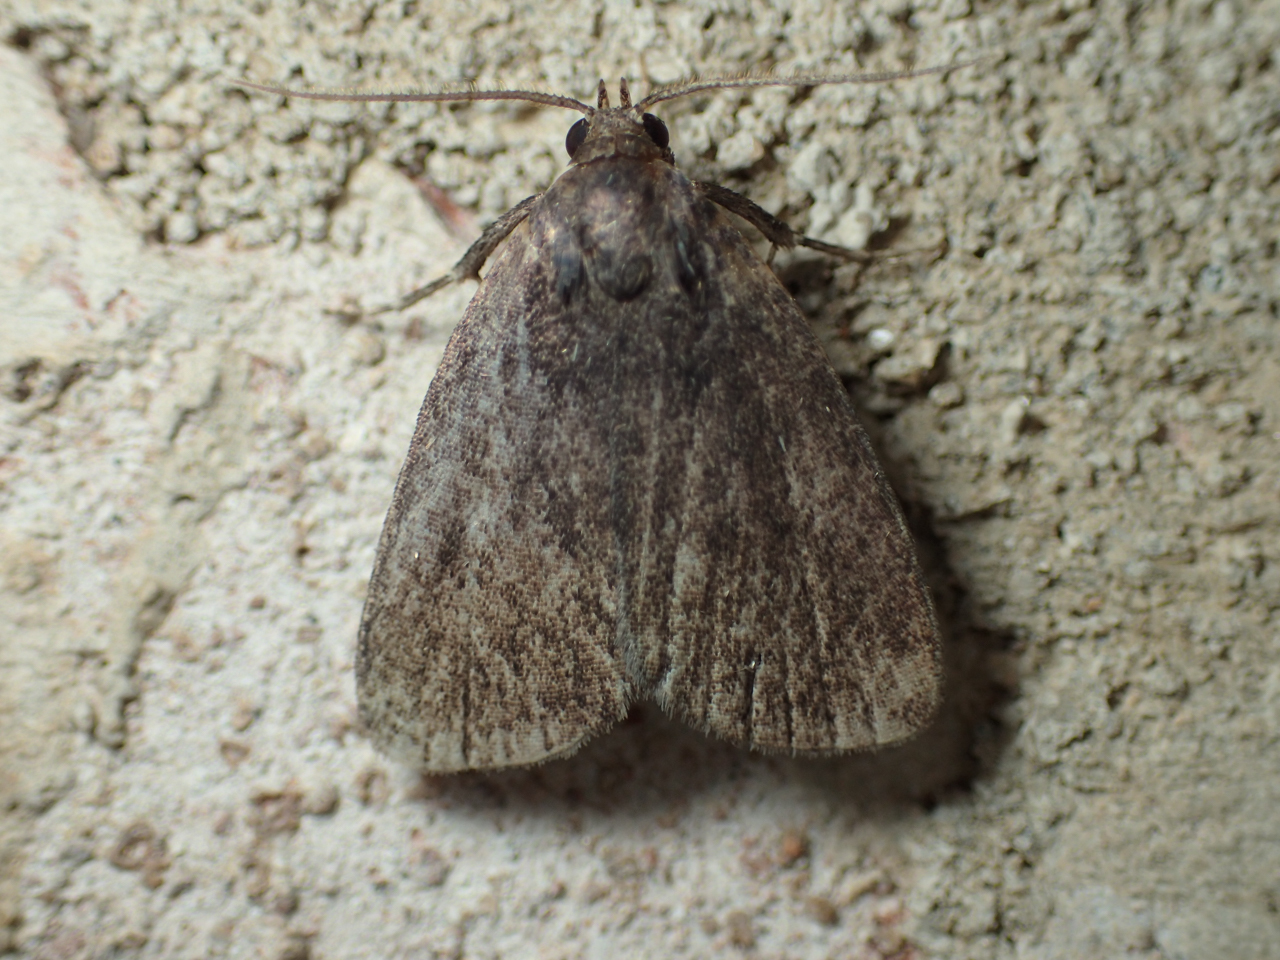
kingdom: Animalia
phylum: Arthropoda
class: Insecta
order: Lepidoptera
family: Erebidae
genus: Idia
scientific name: Idia rotundalis
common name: Rotund idia moth
